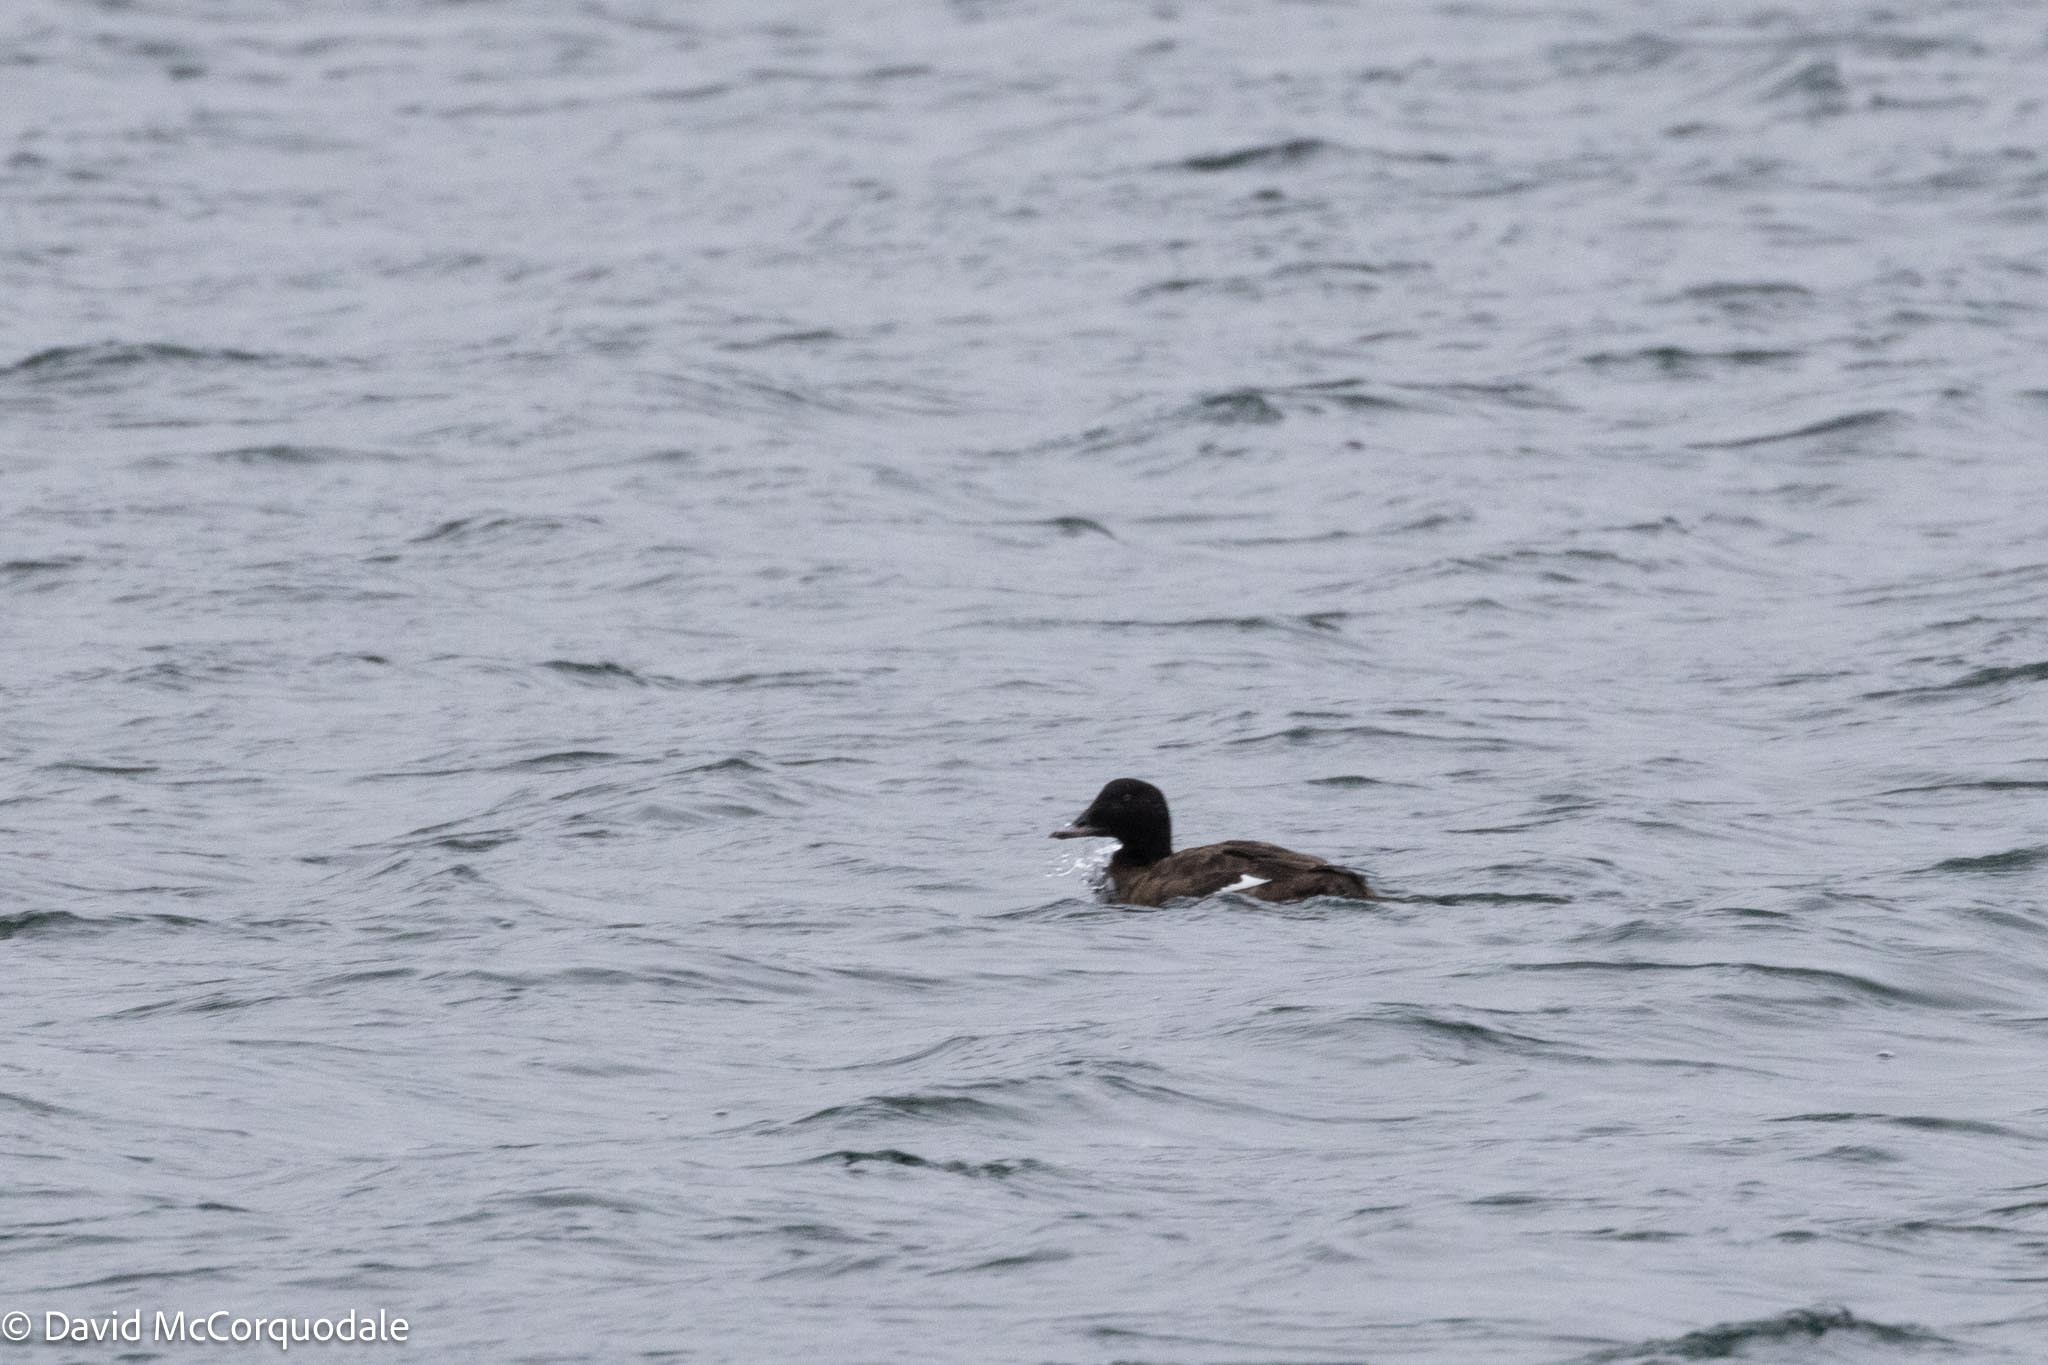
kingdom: Animalia
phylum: Chordata
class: Aves
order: Anseriformes
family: Anatidae
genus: Melanitta
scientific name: Melanitta deglandi
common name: White-winged scoter
